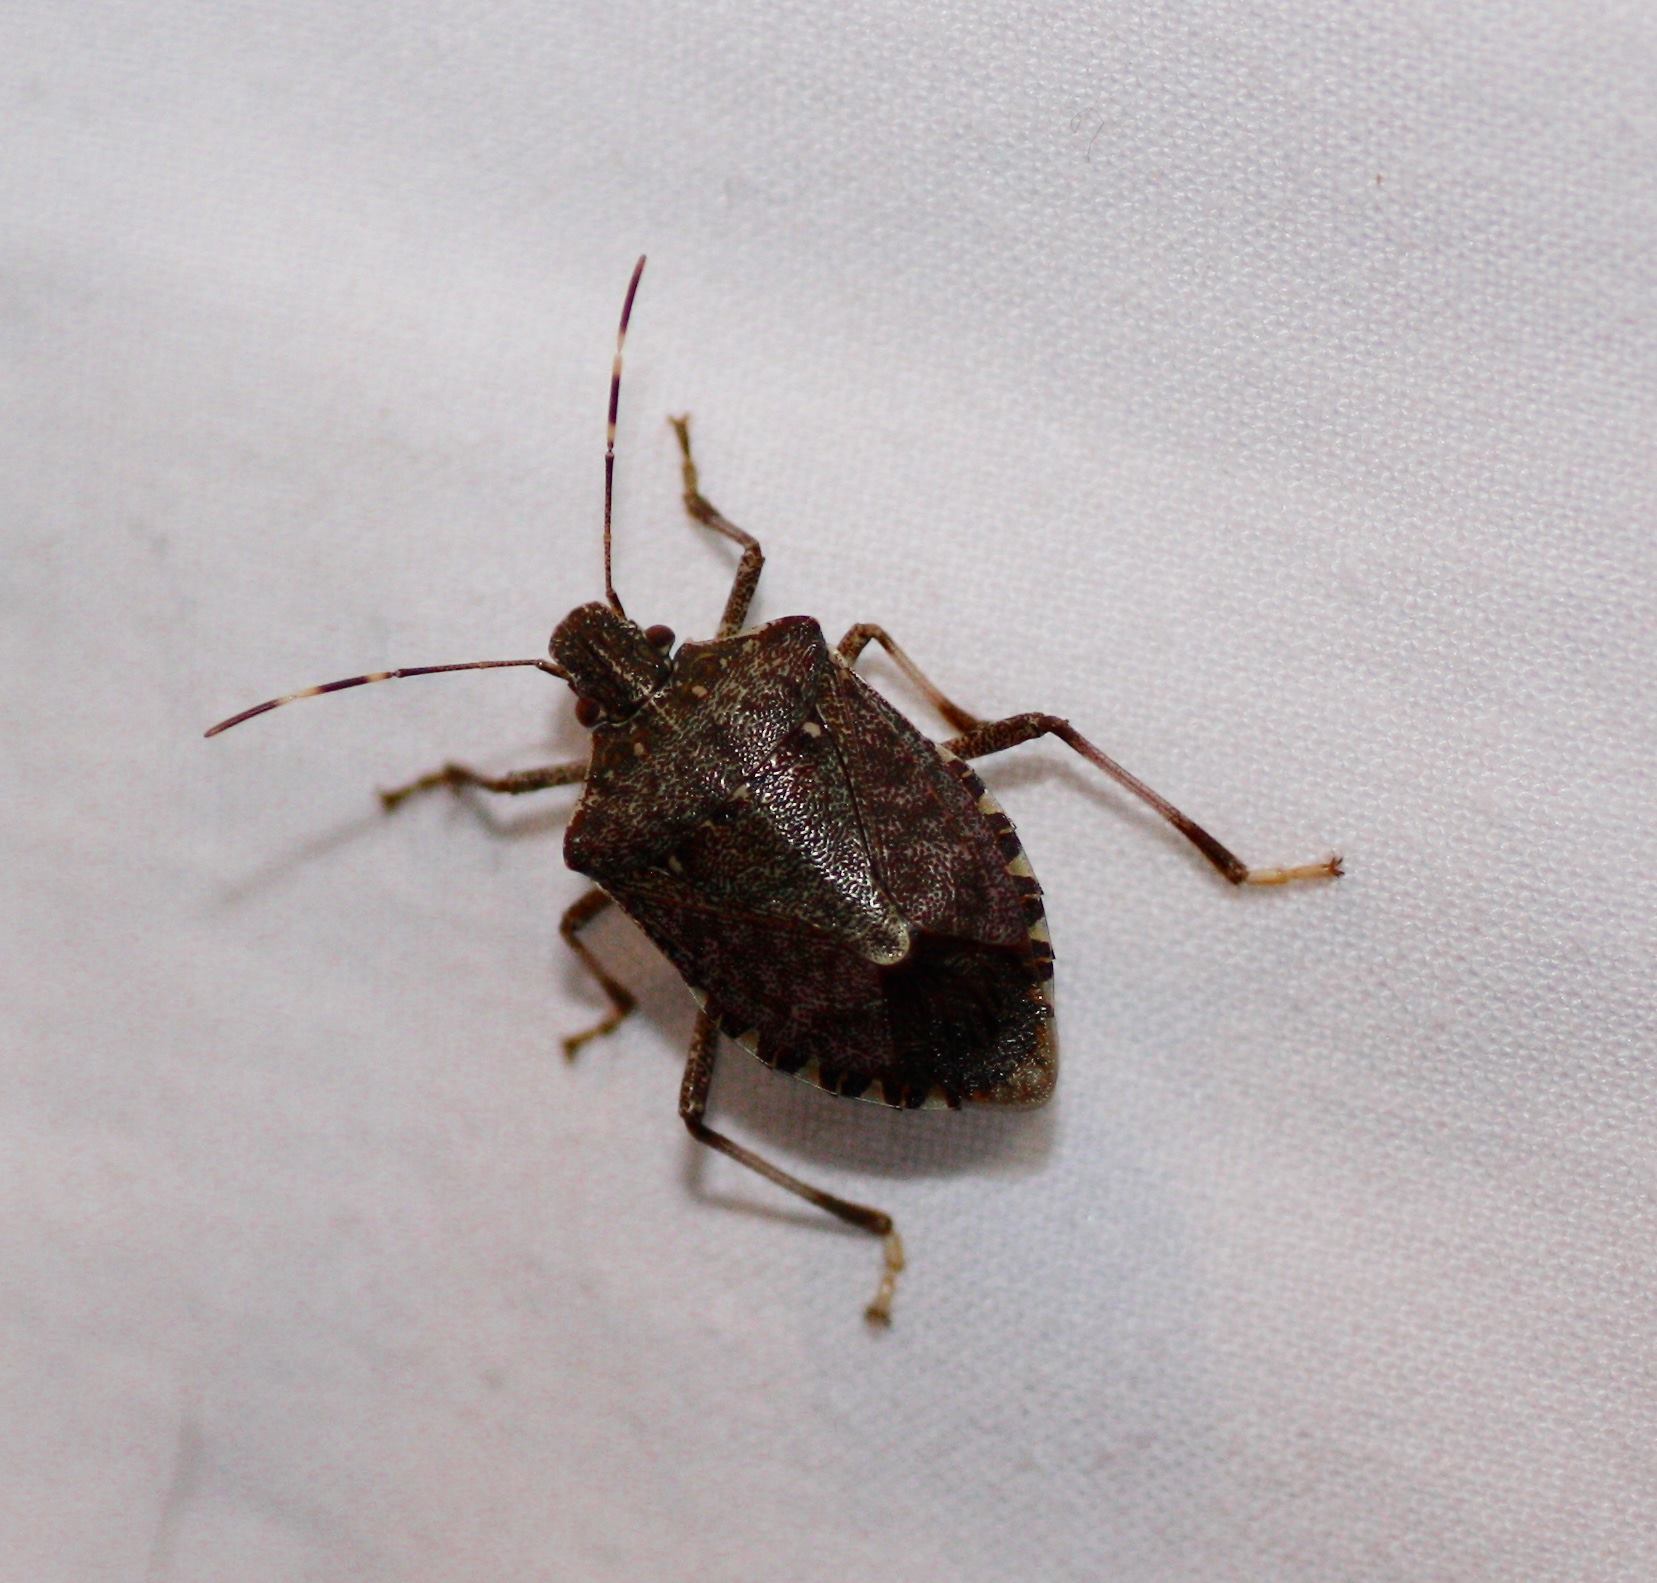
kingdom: Animalia
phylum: Arthropoda
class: Insecta
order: Hemiptera
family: Pentatomidae
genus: Halyomorpha
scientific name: Halyomorpha halys
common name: Brown marmorated stink bug
